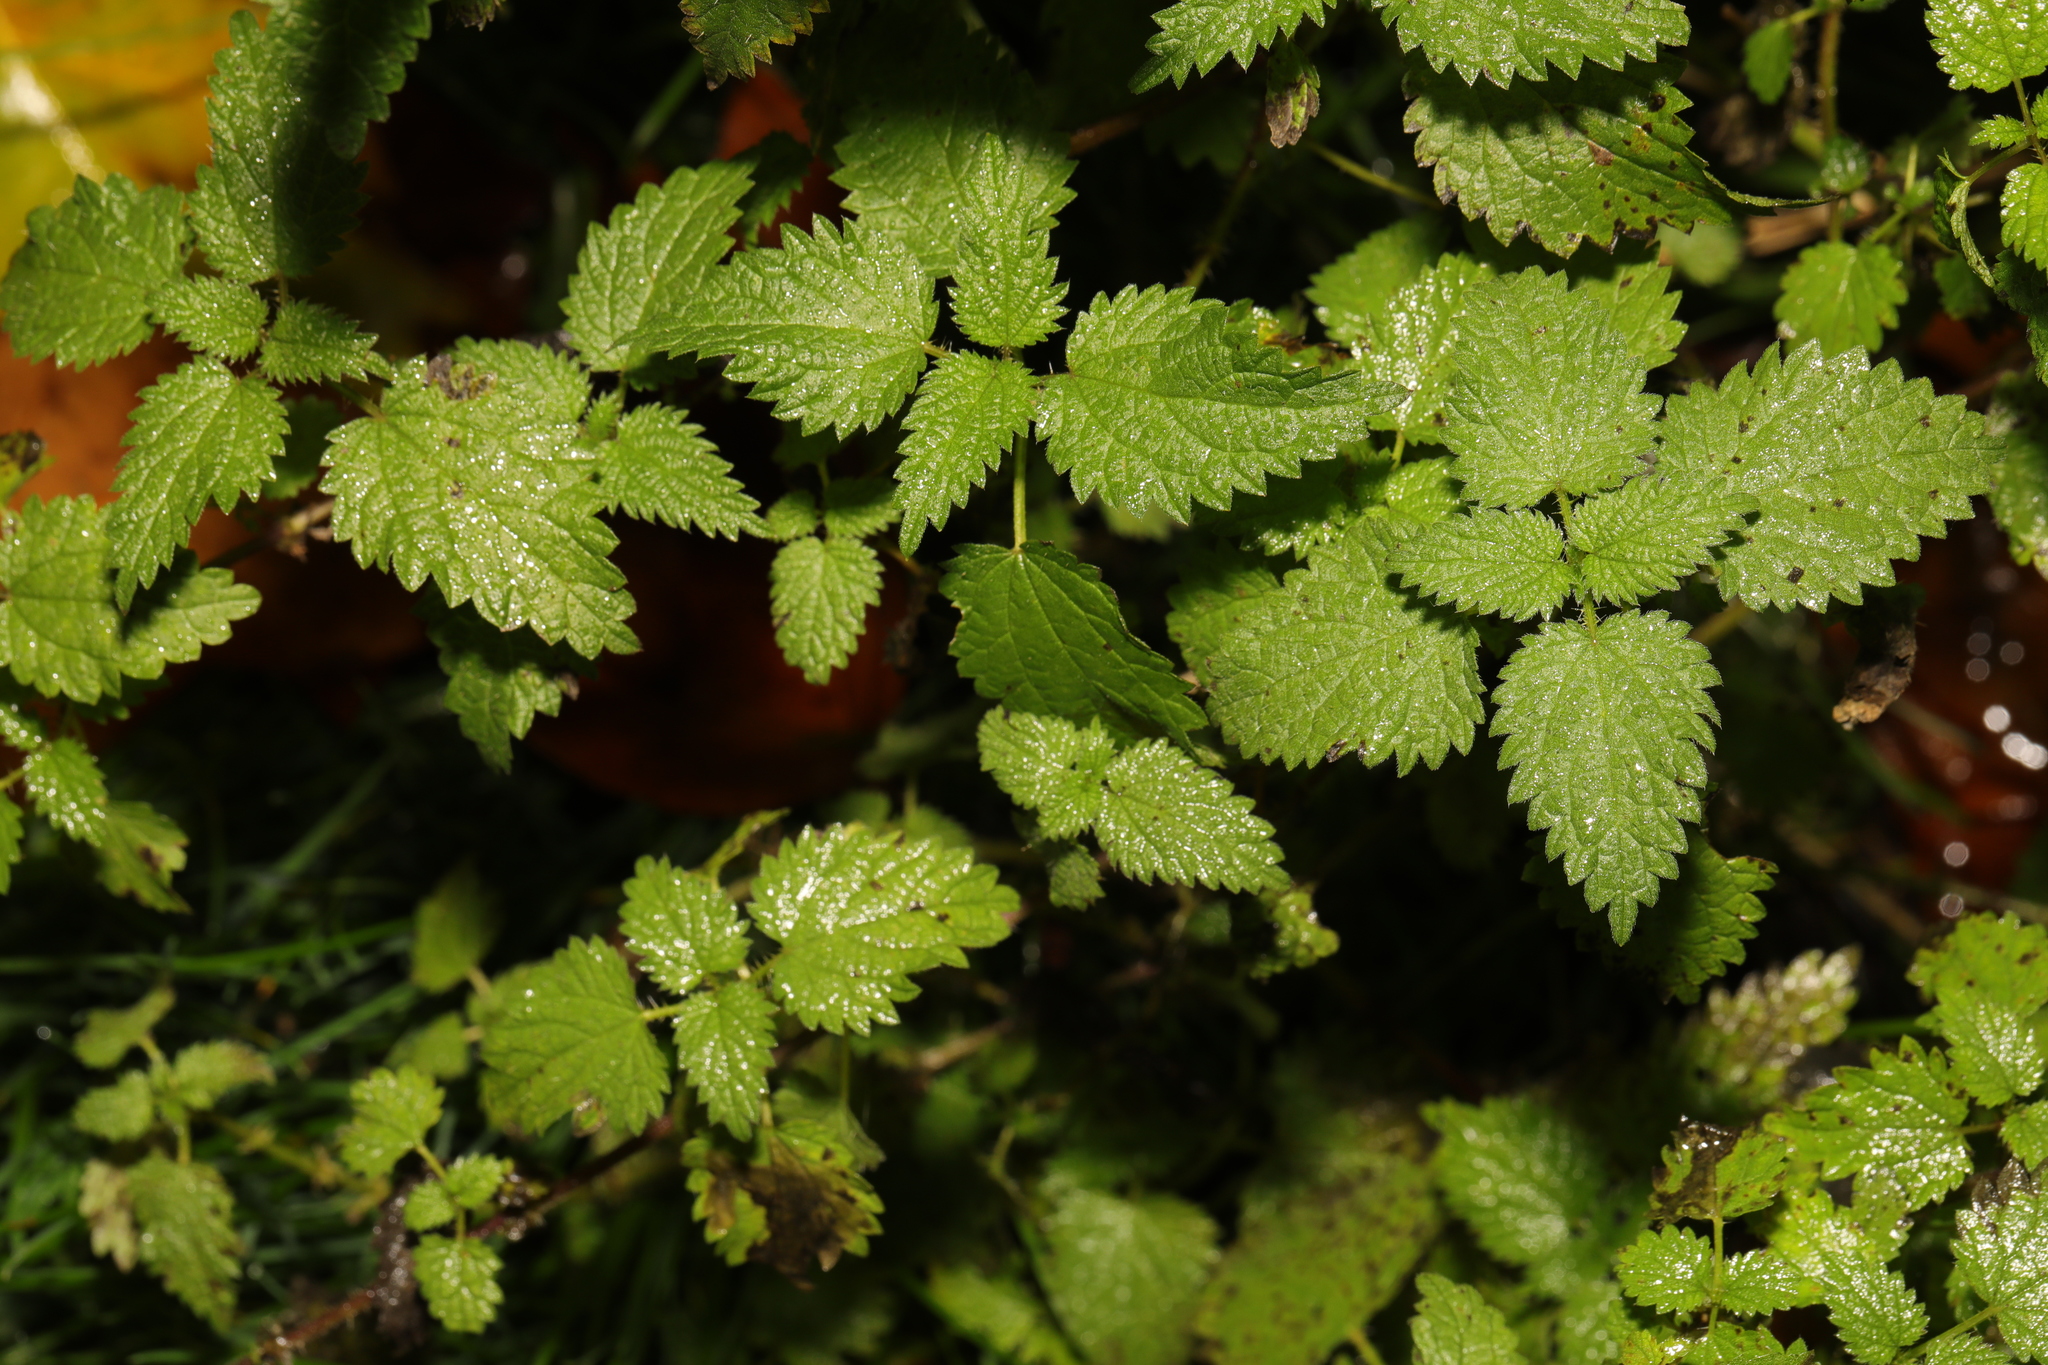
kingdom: Plantae
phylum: Tracheophyta
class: Magnoliopsida
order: Rosales
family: Urticaceae
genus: Urtica
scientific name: Urtica dioica
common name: Common nettle
